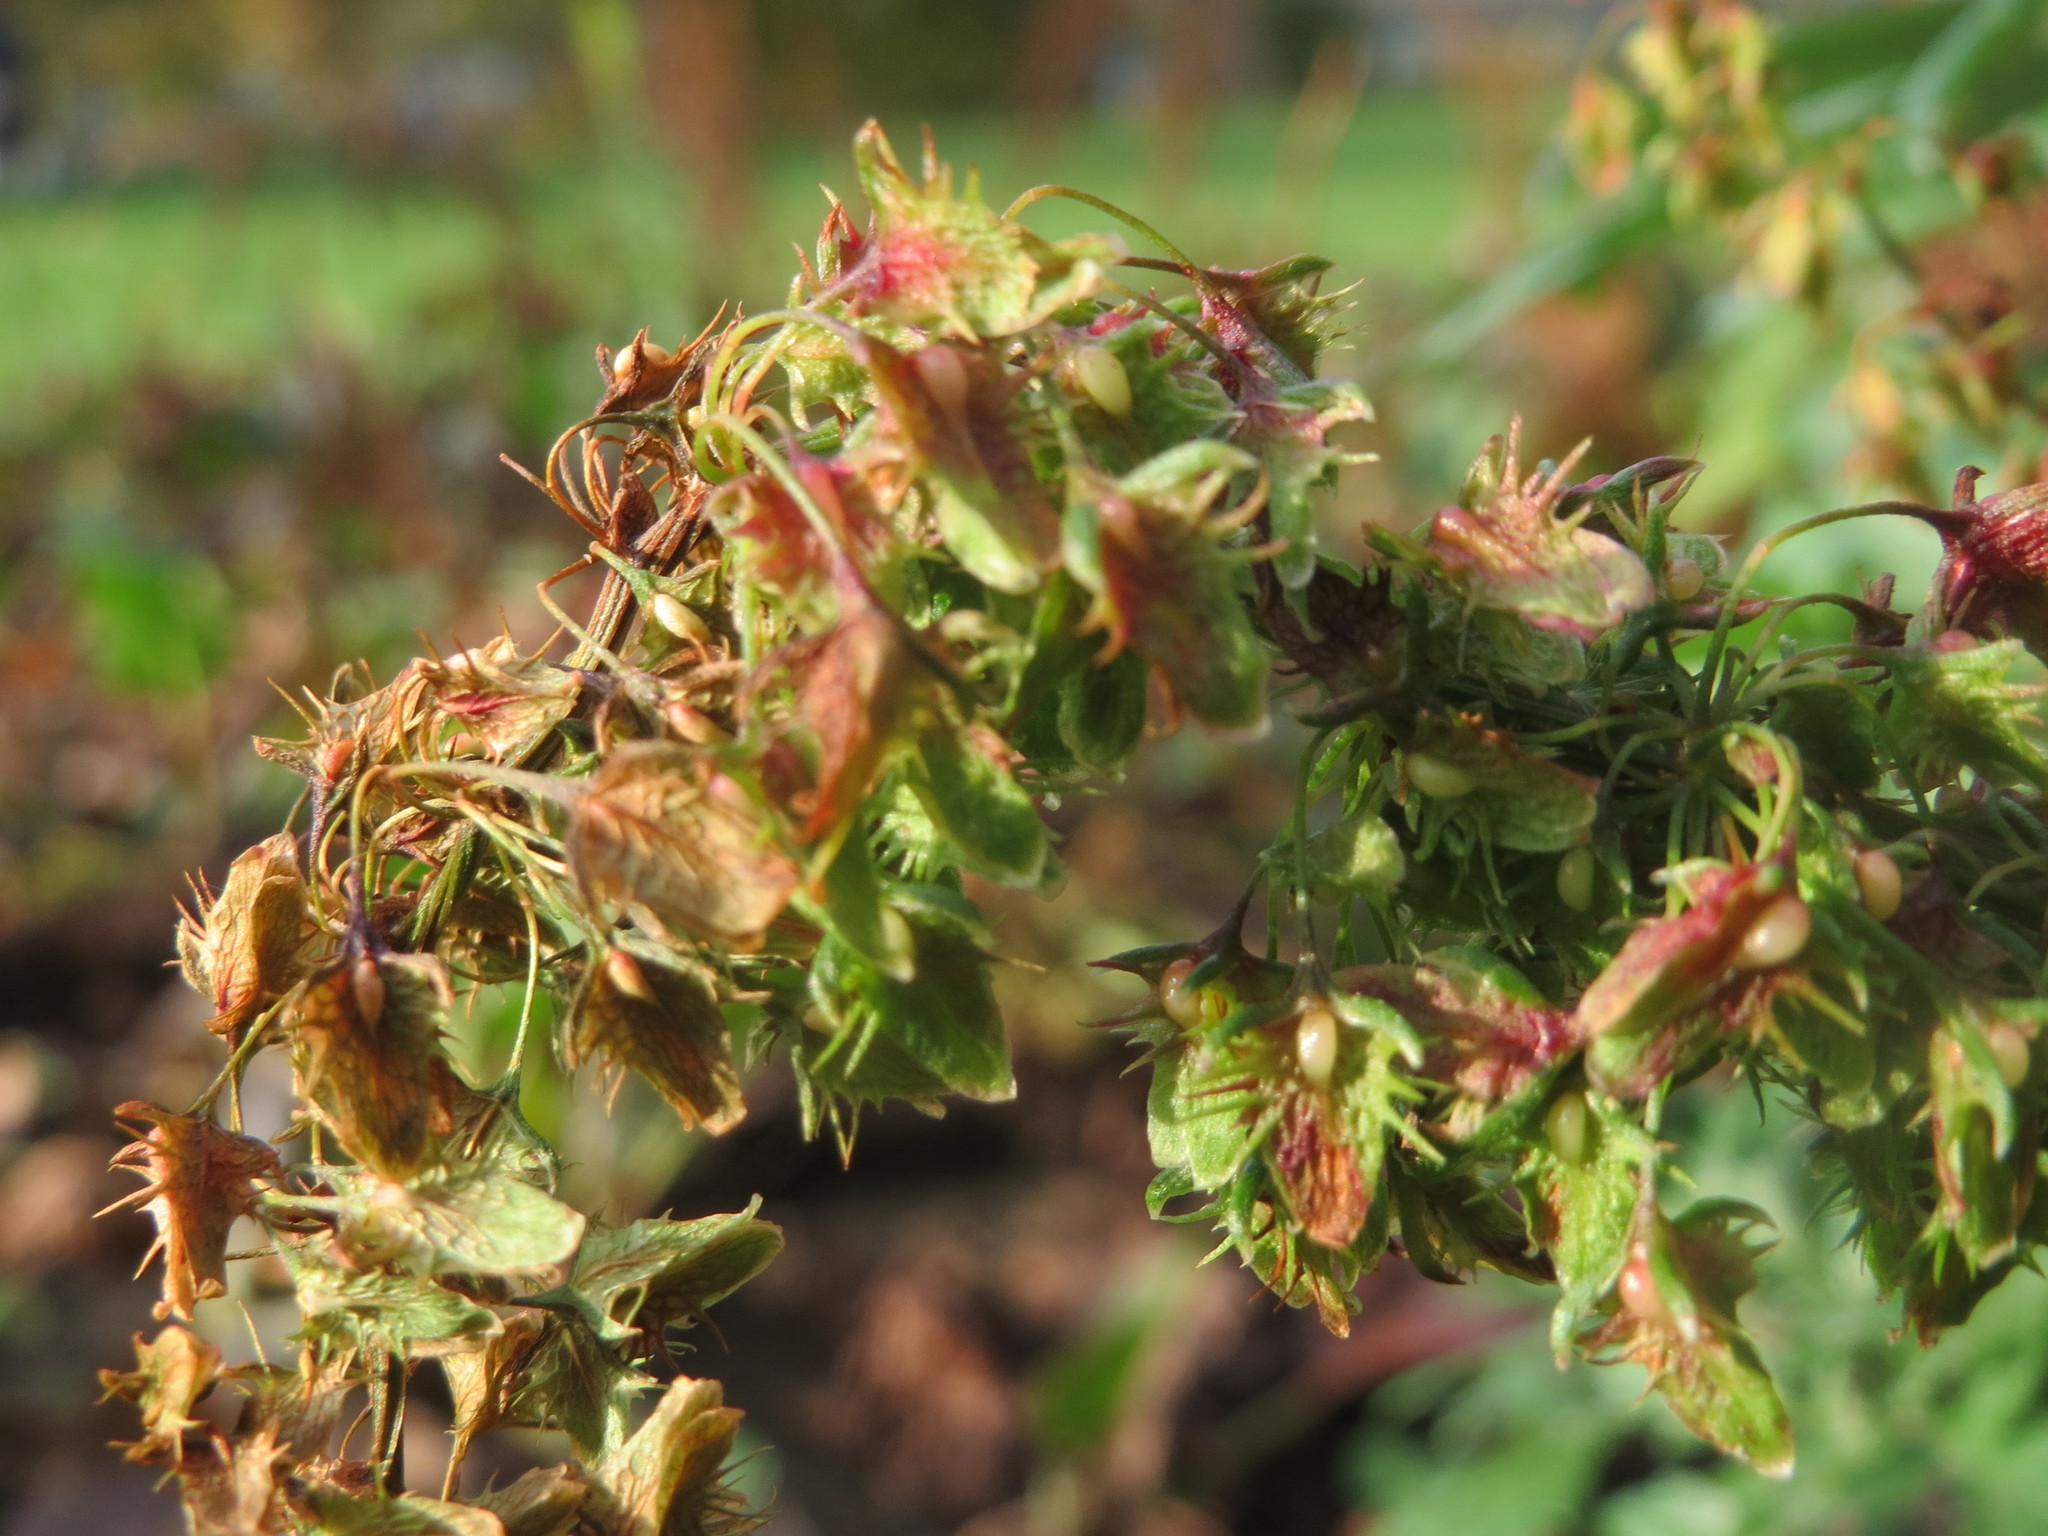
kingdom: Plantae
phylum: Tracheophyta
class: Magnoliopsida
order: Caryophyllales
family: Polygonaceae
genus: Rumex
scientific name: Rumex obtusifolius
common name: Bitter dock
